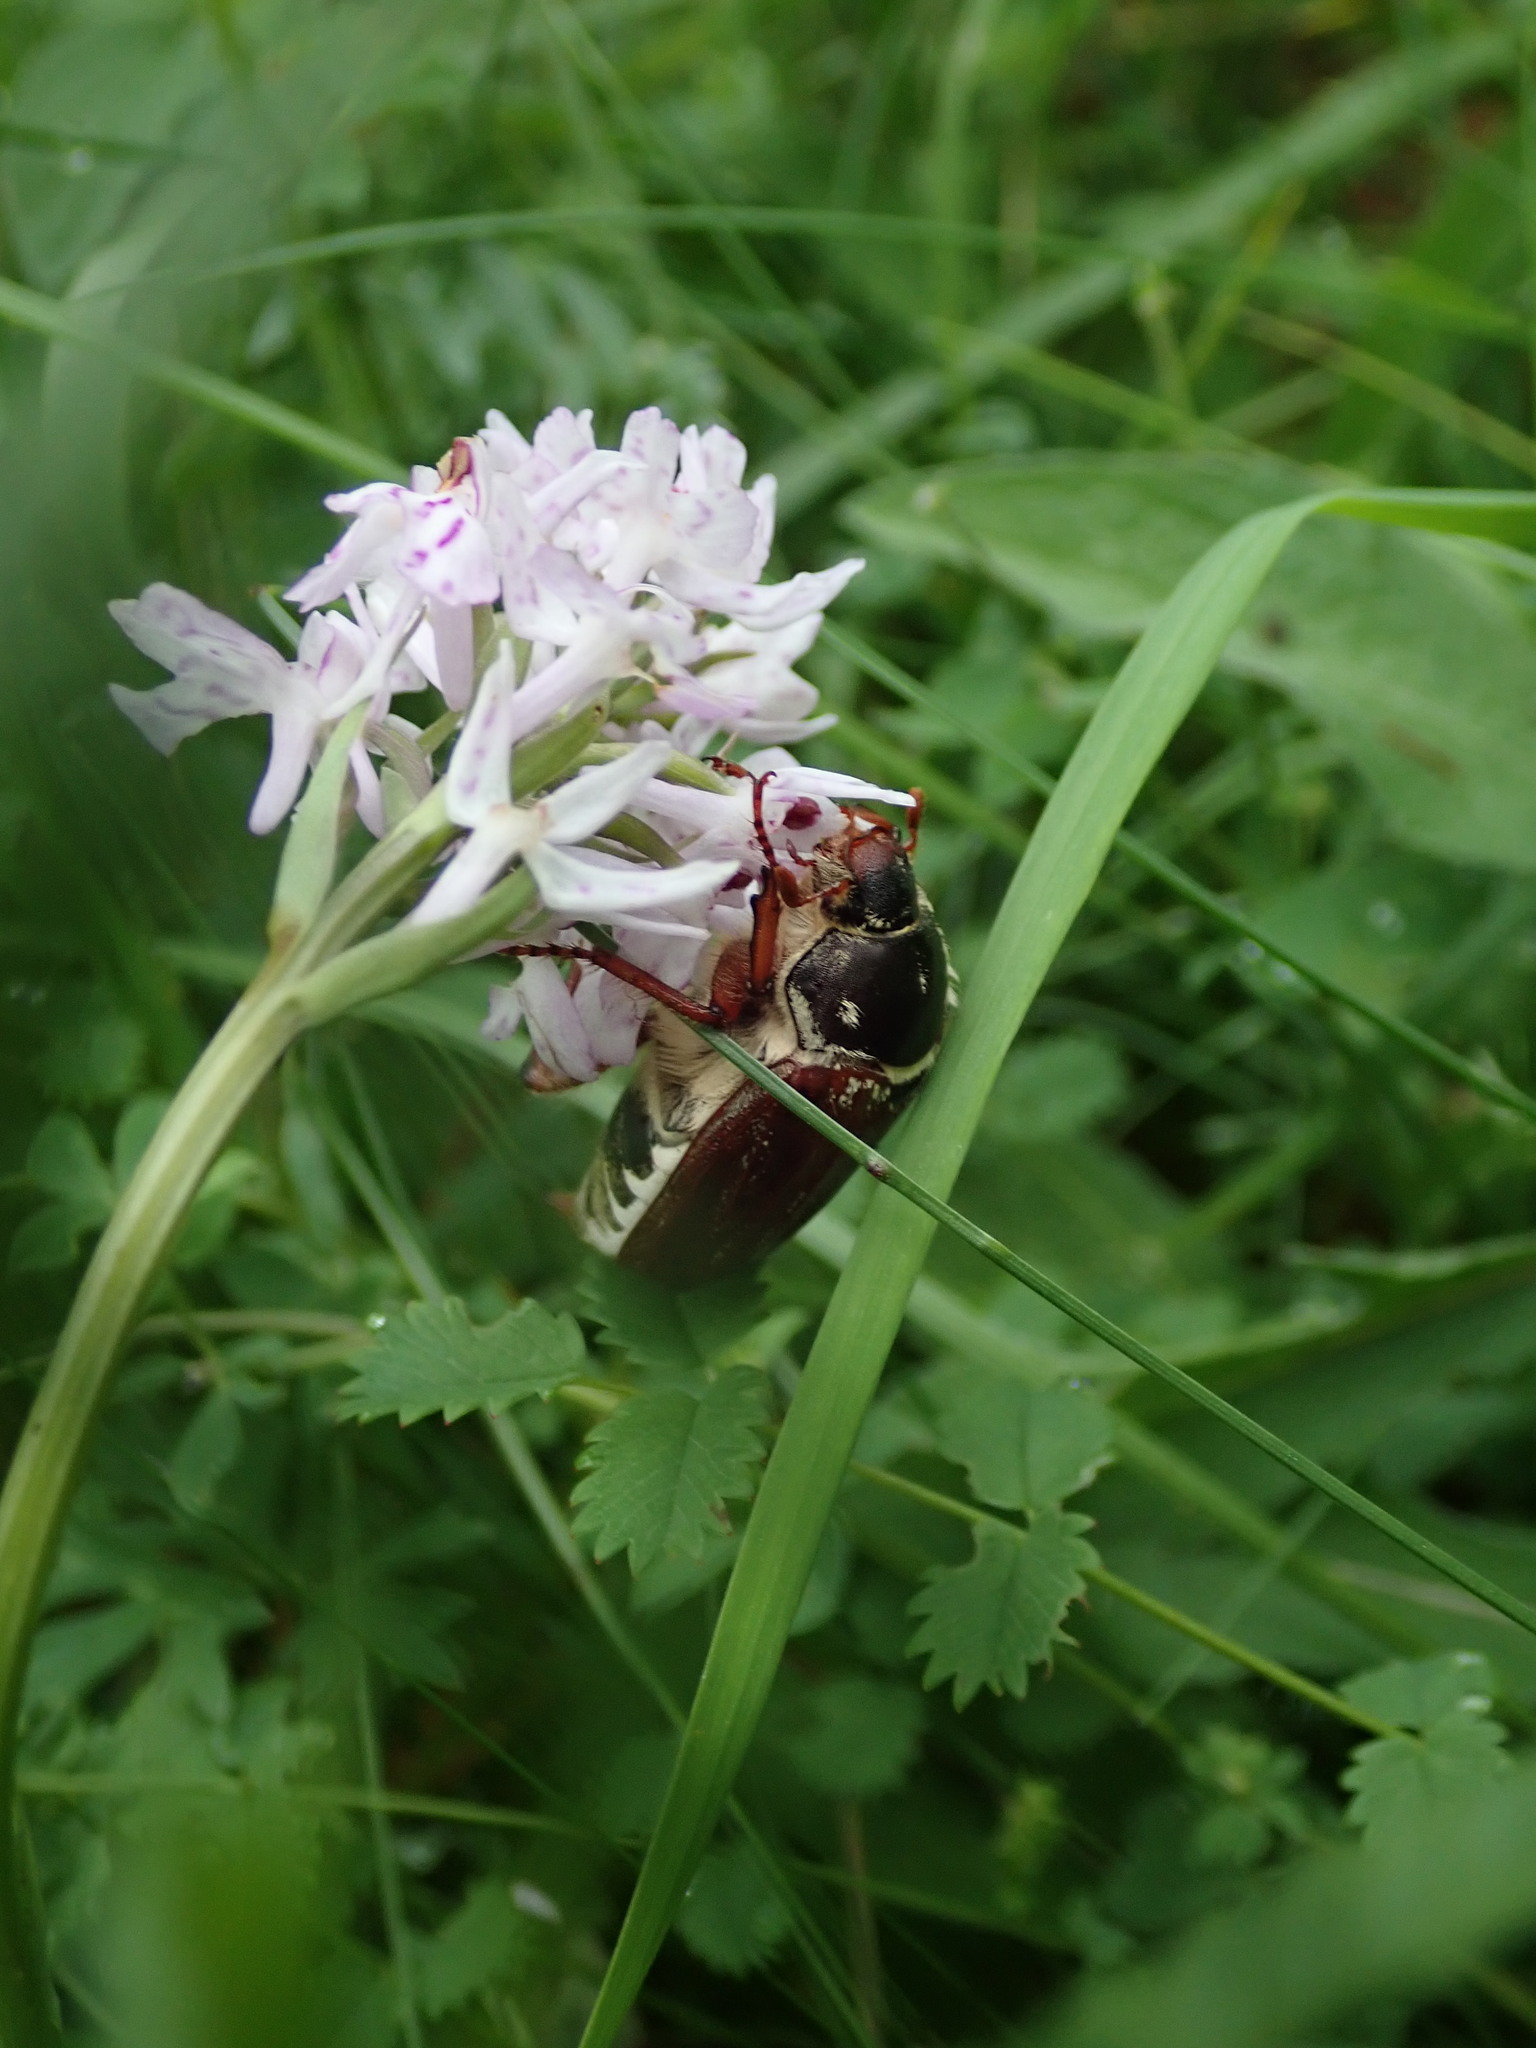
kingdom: Animalia
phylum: Arthropoda
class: Insecta
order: Coleoptera
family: Scarabaeidae
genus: Melolontha
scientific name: Melolontha melolontha
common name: Cockchafer maybeetle
